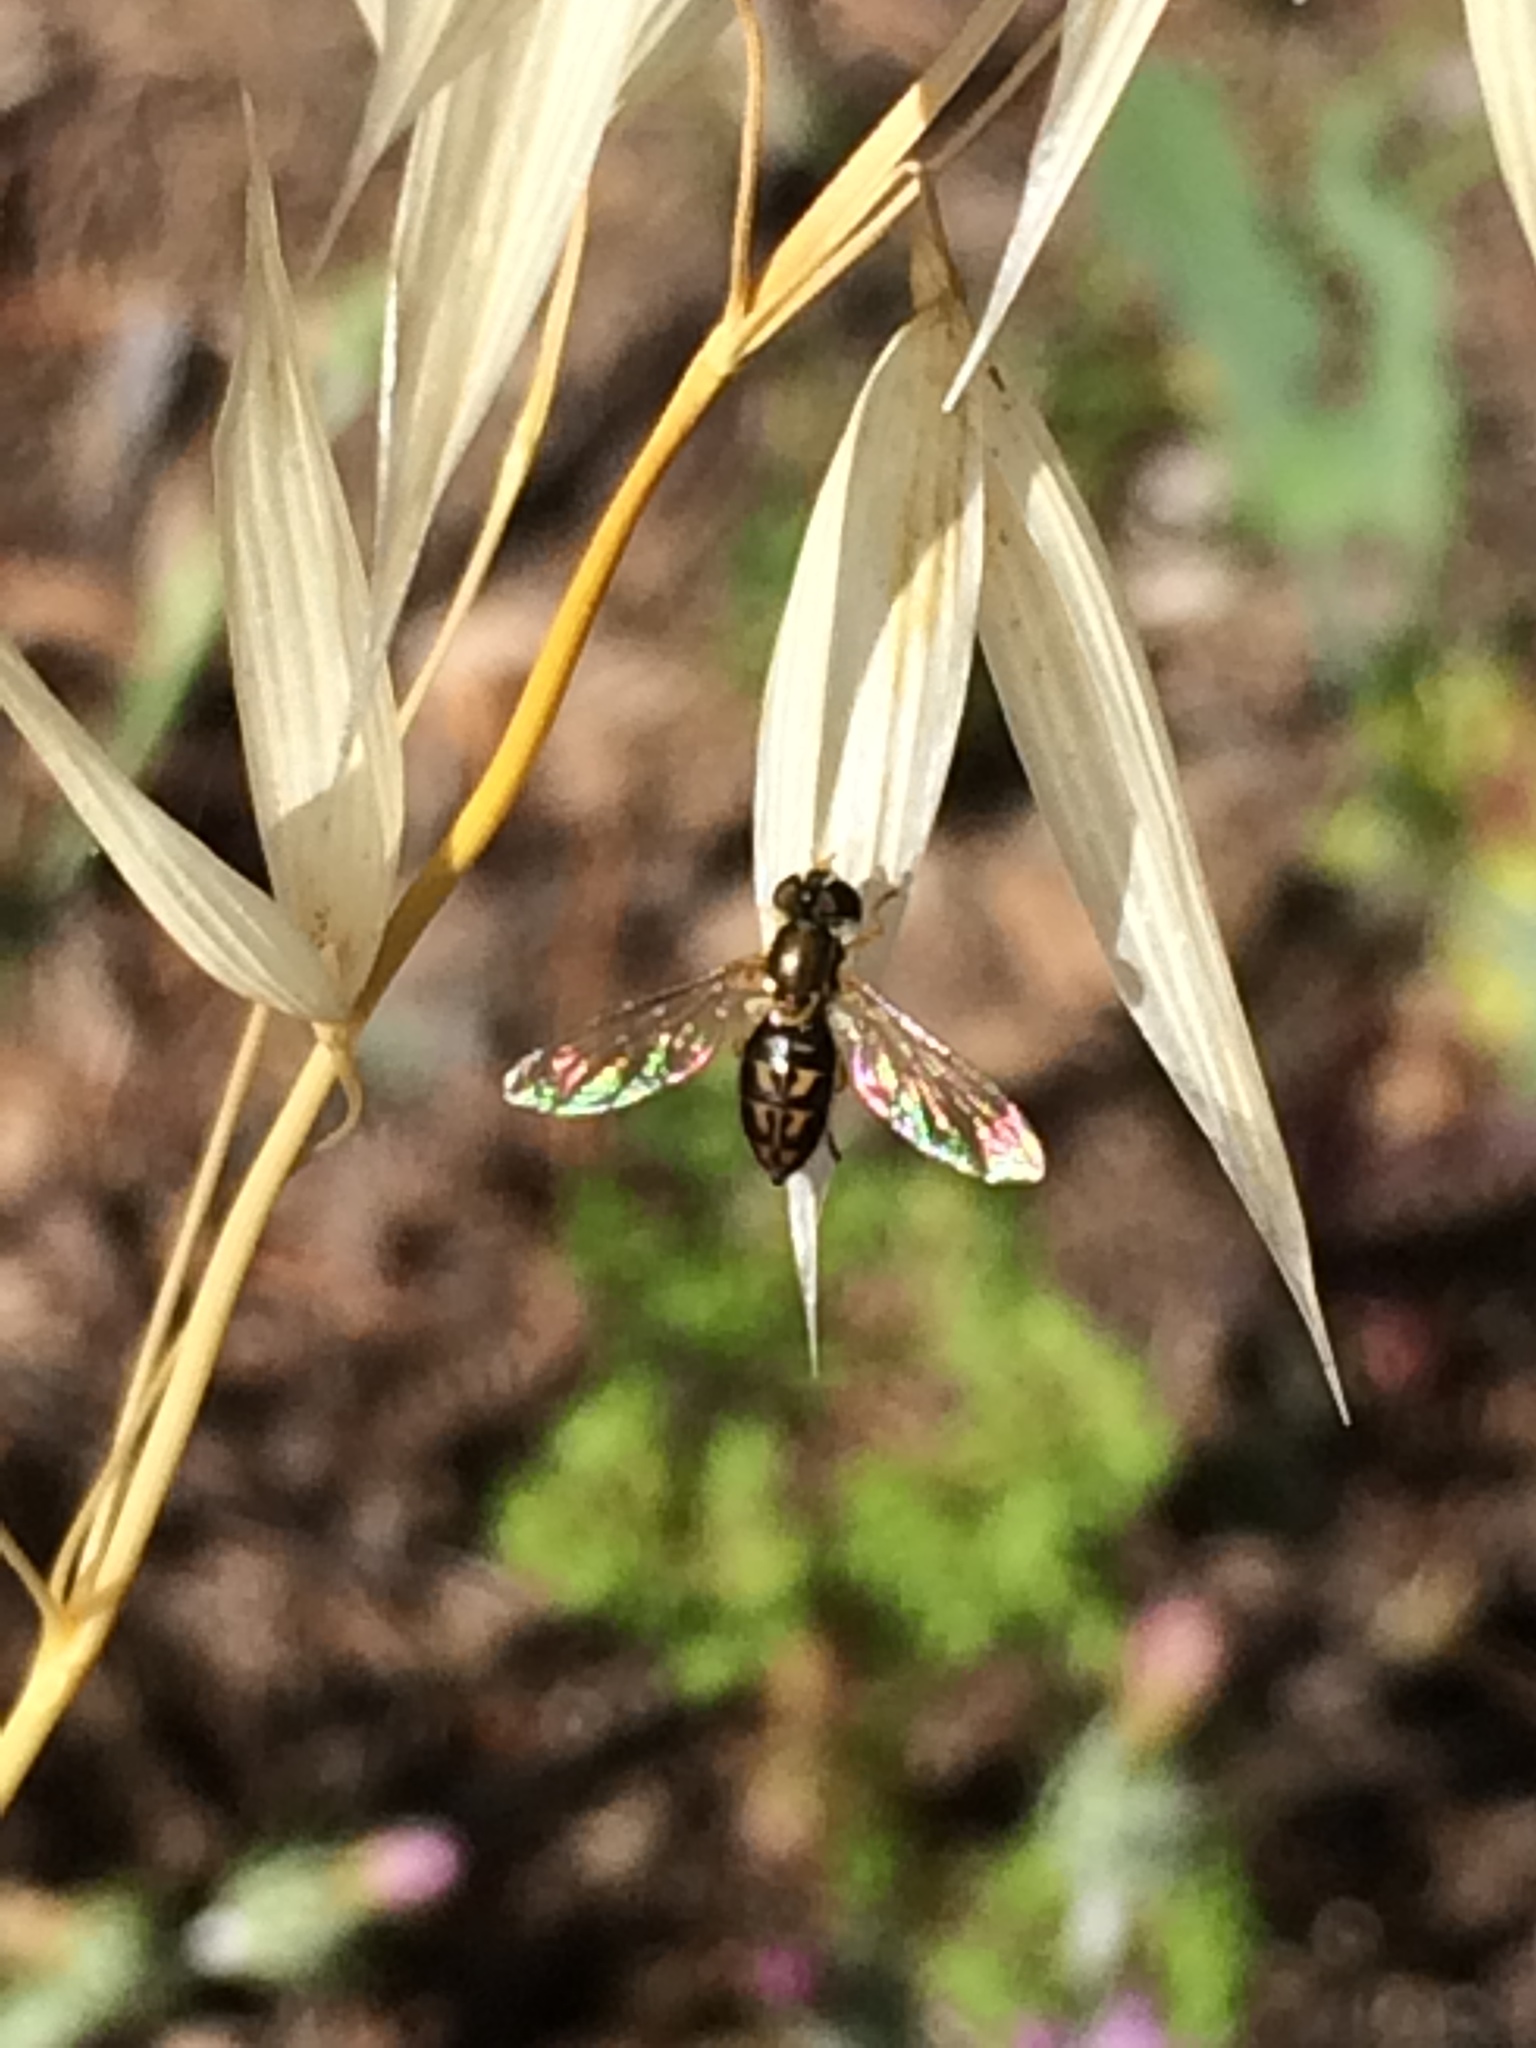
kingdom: Animalia
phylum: Arthropoda
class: Insecta
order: Diptera
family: Syrphidae
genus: Toxomerus
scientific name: Toxomerus marginatus
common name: Syrphid fly
